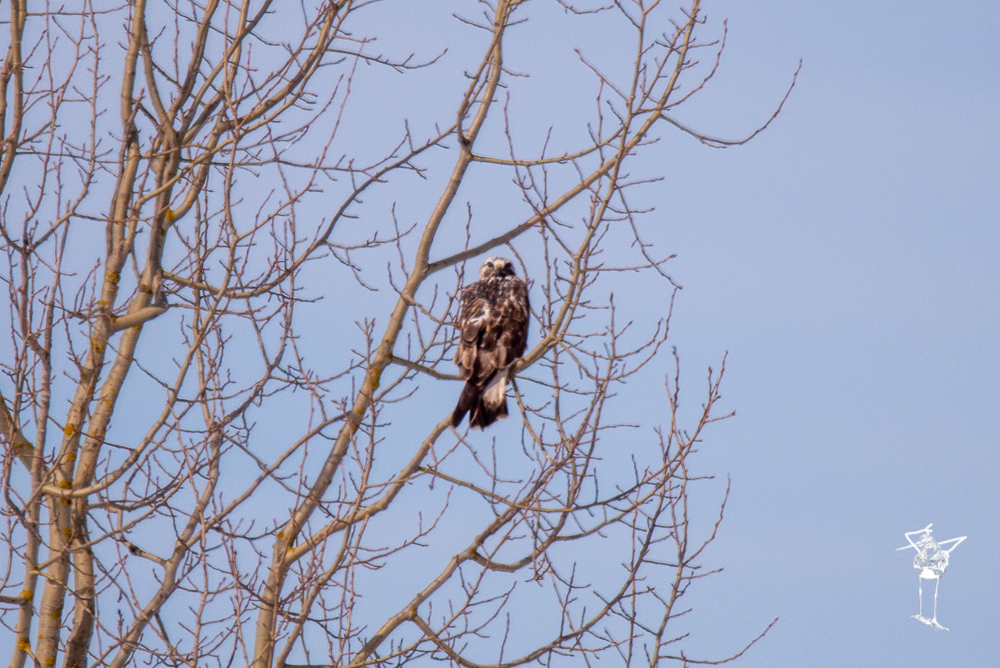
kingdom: Animalia
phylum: Chordata
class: Aves
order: Accipitriformes
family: Accipitridae
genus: Buteo
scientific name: Buteo lagopus
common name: Rough-legged buzzard
